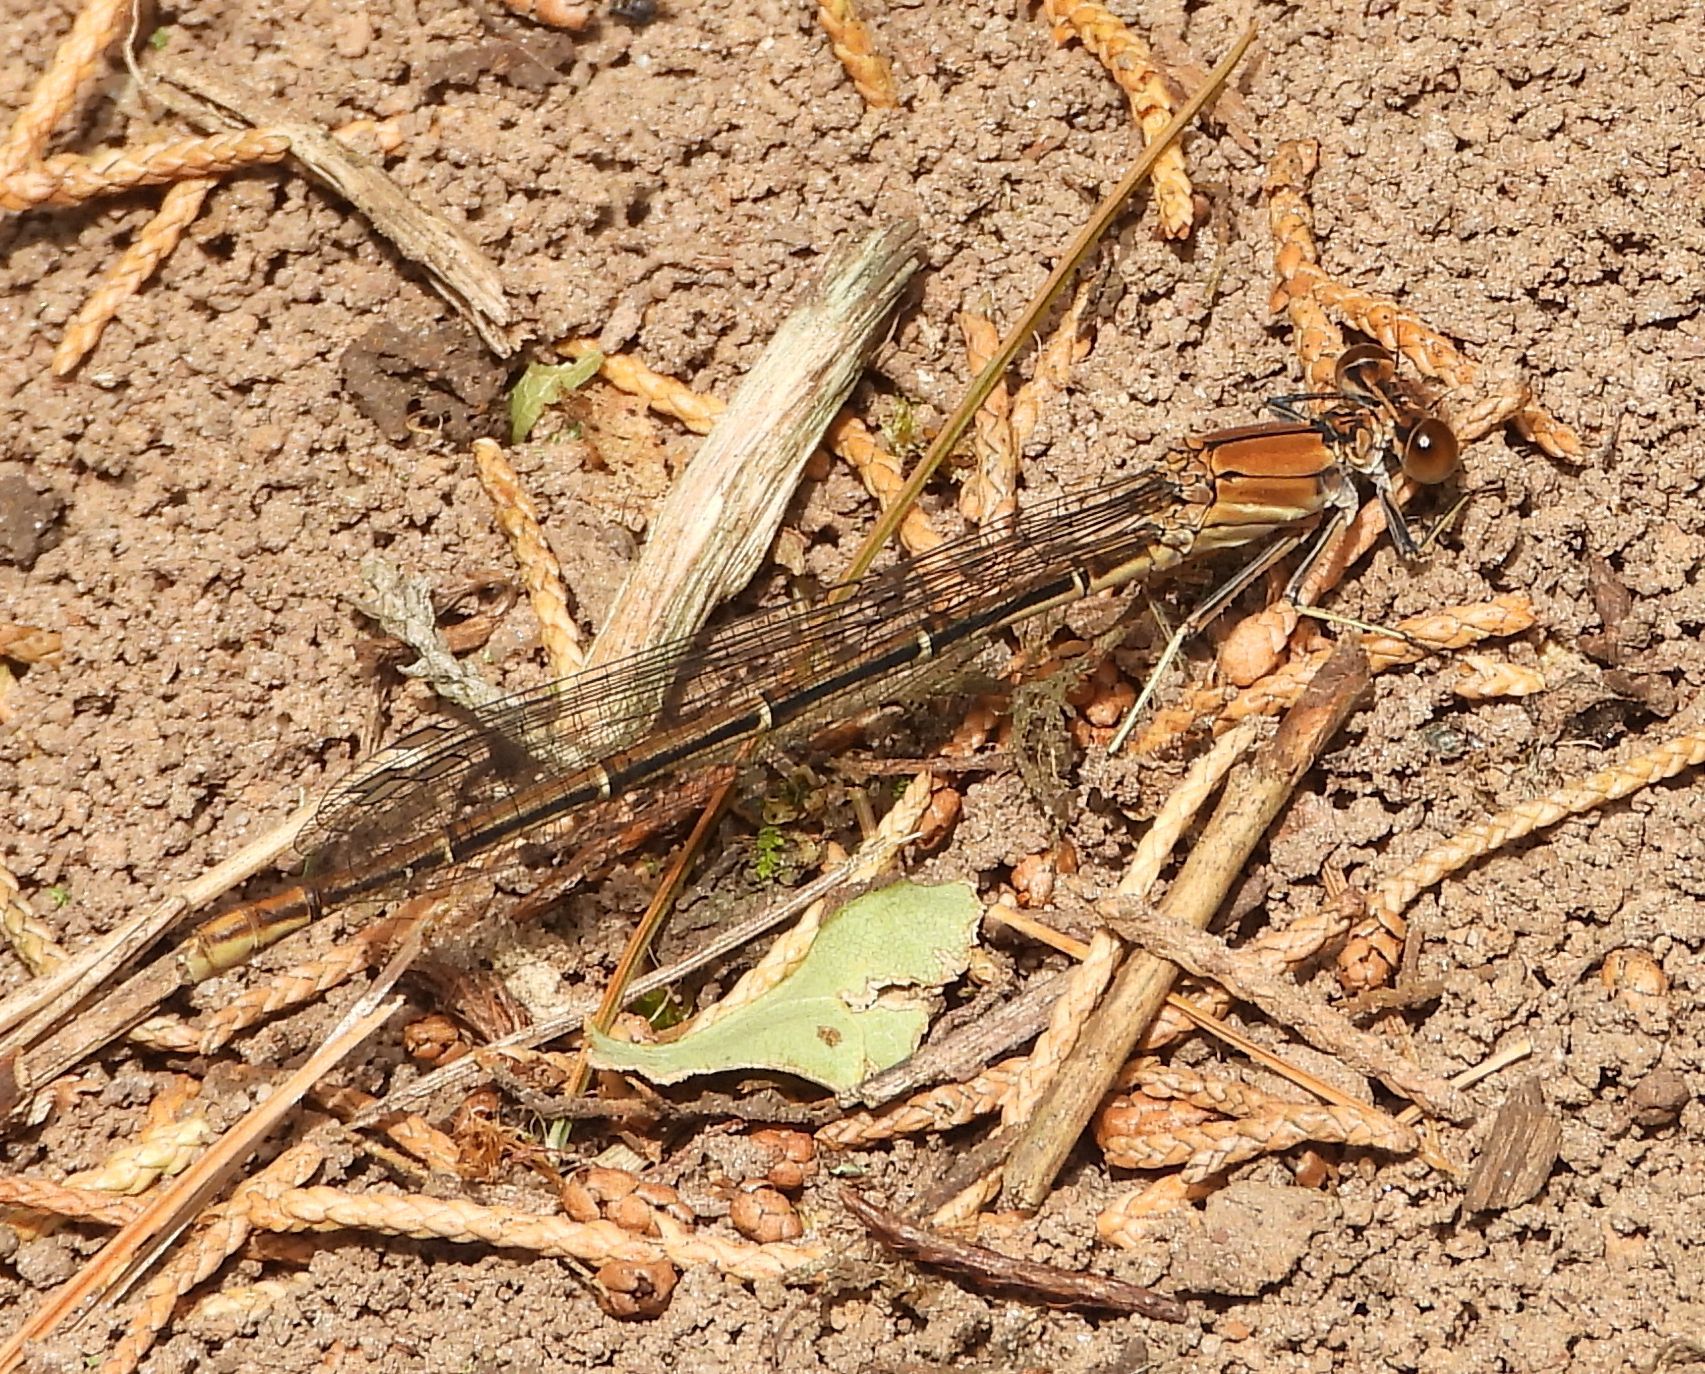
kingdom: Animalia
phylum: Arthropoda
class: Insecta
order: Odonata
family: Coenagrionidae
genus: Argia
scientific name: Argia moesta
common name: Powdered dancer
